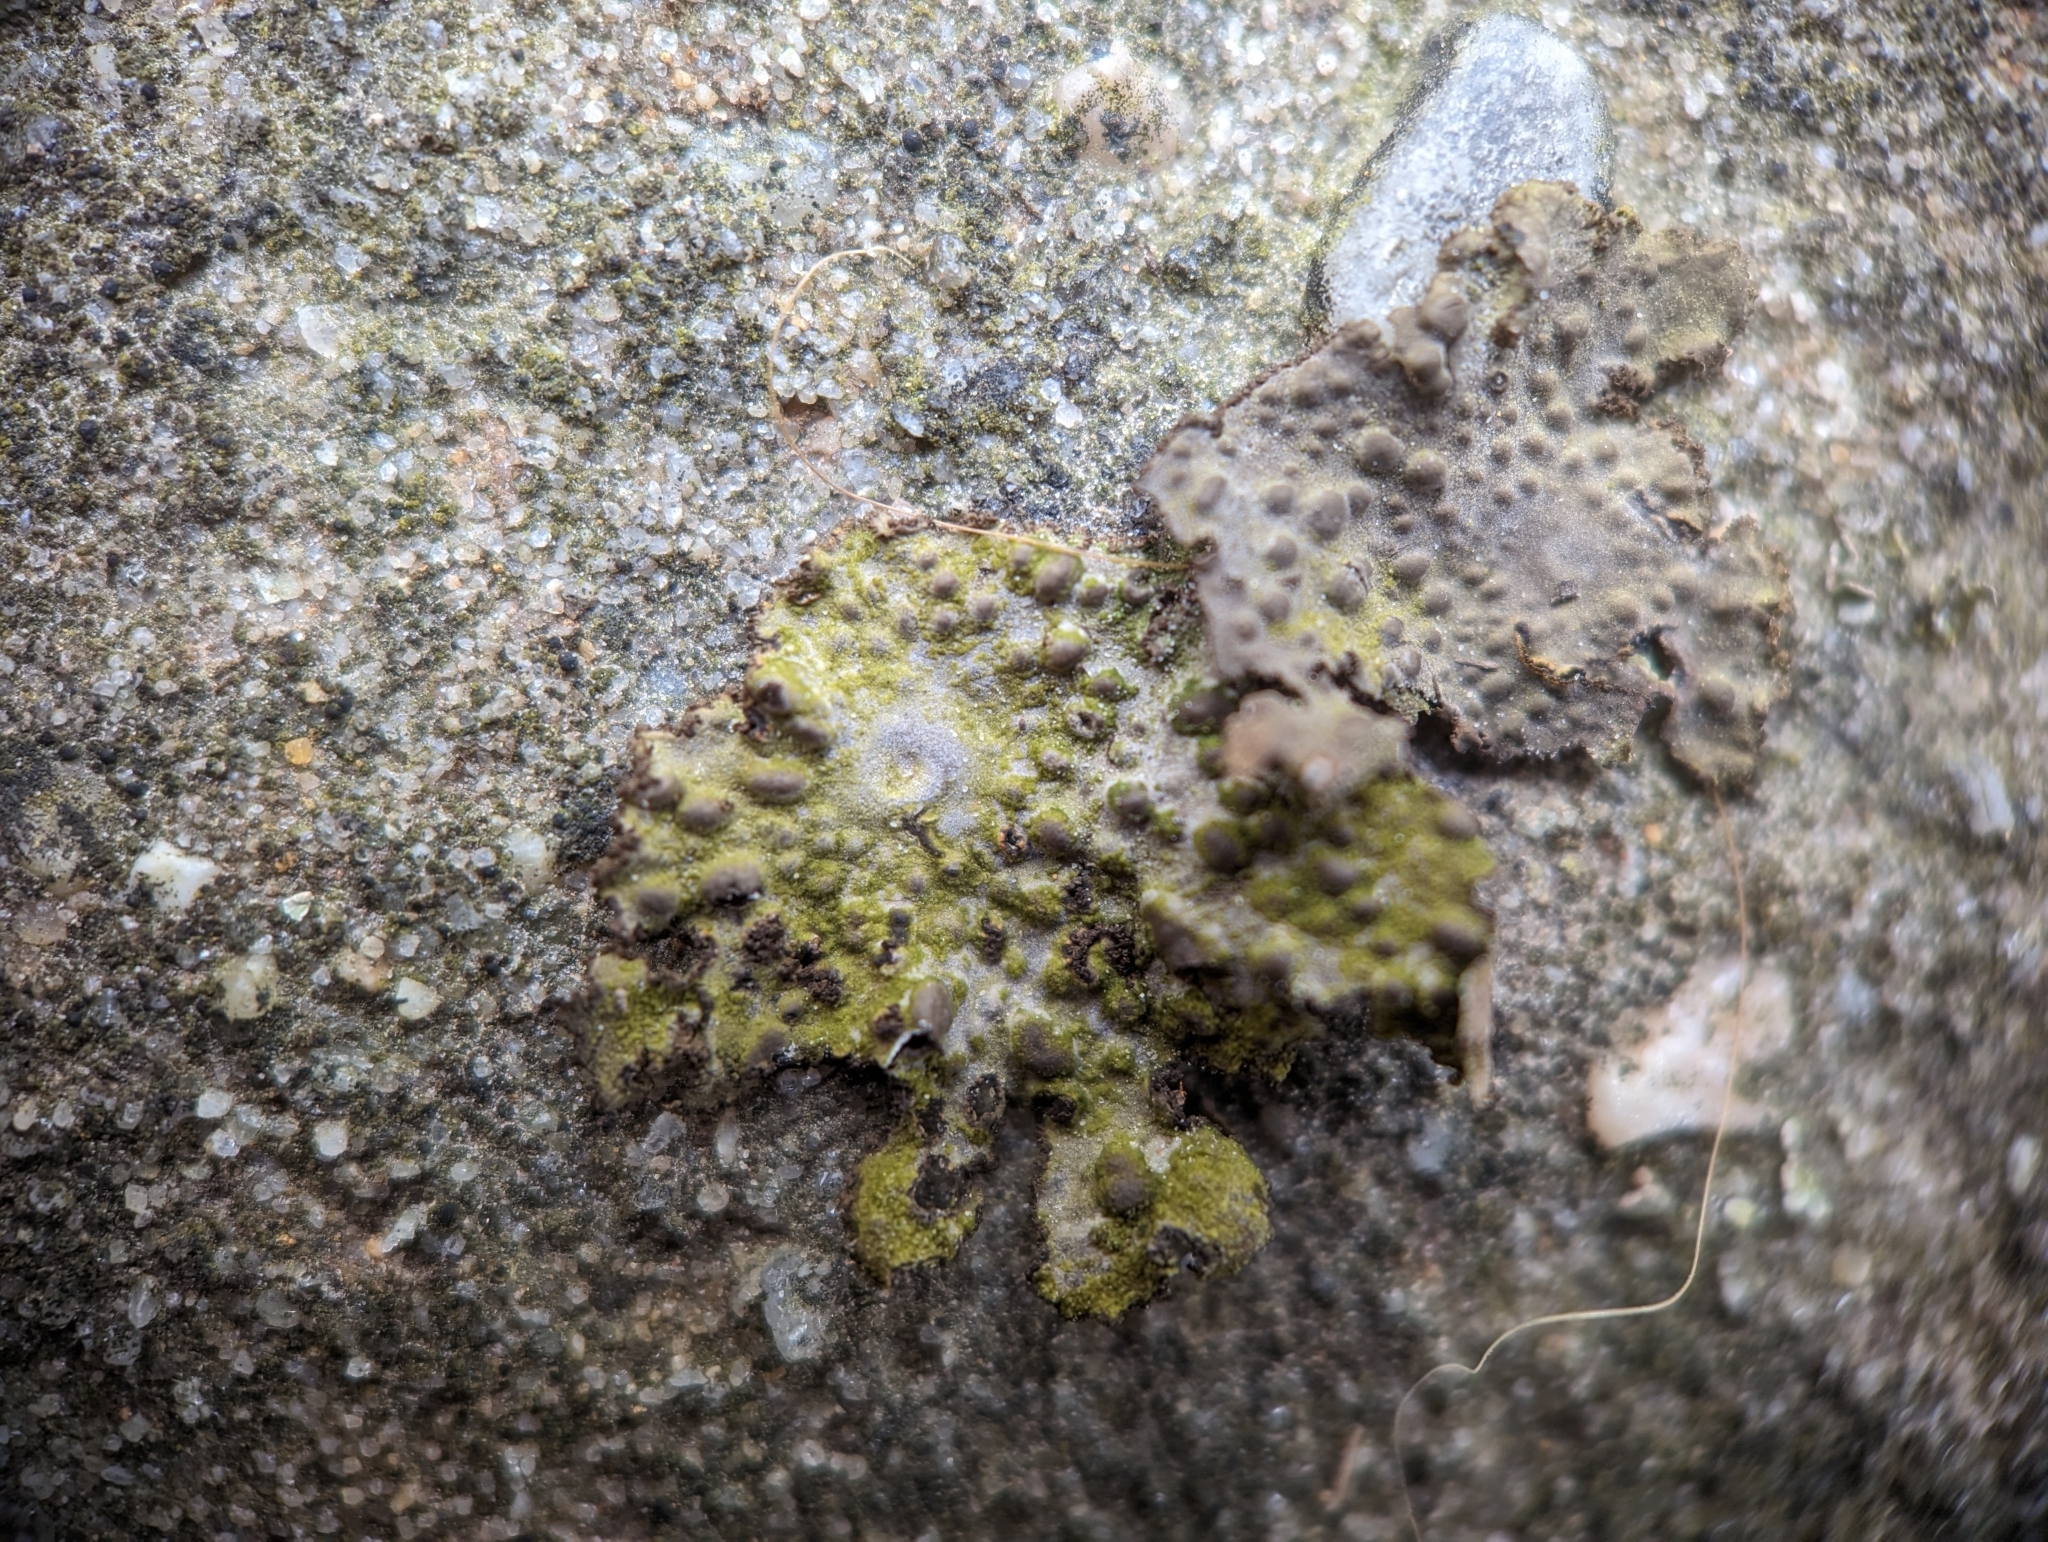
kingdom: Fungi
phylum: Ascomycota
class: Lecanoromycetes
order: Umbilicariales
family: Umbilicariaceae
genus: Lasallia
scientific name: Lasallia papulosa
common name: Common toadskin lichen
